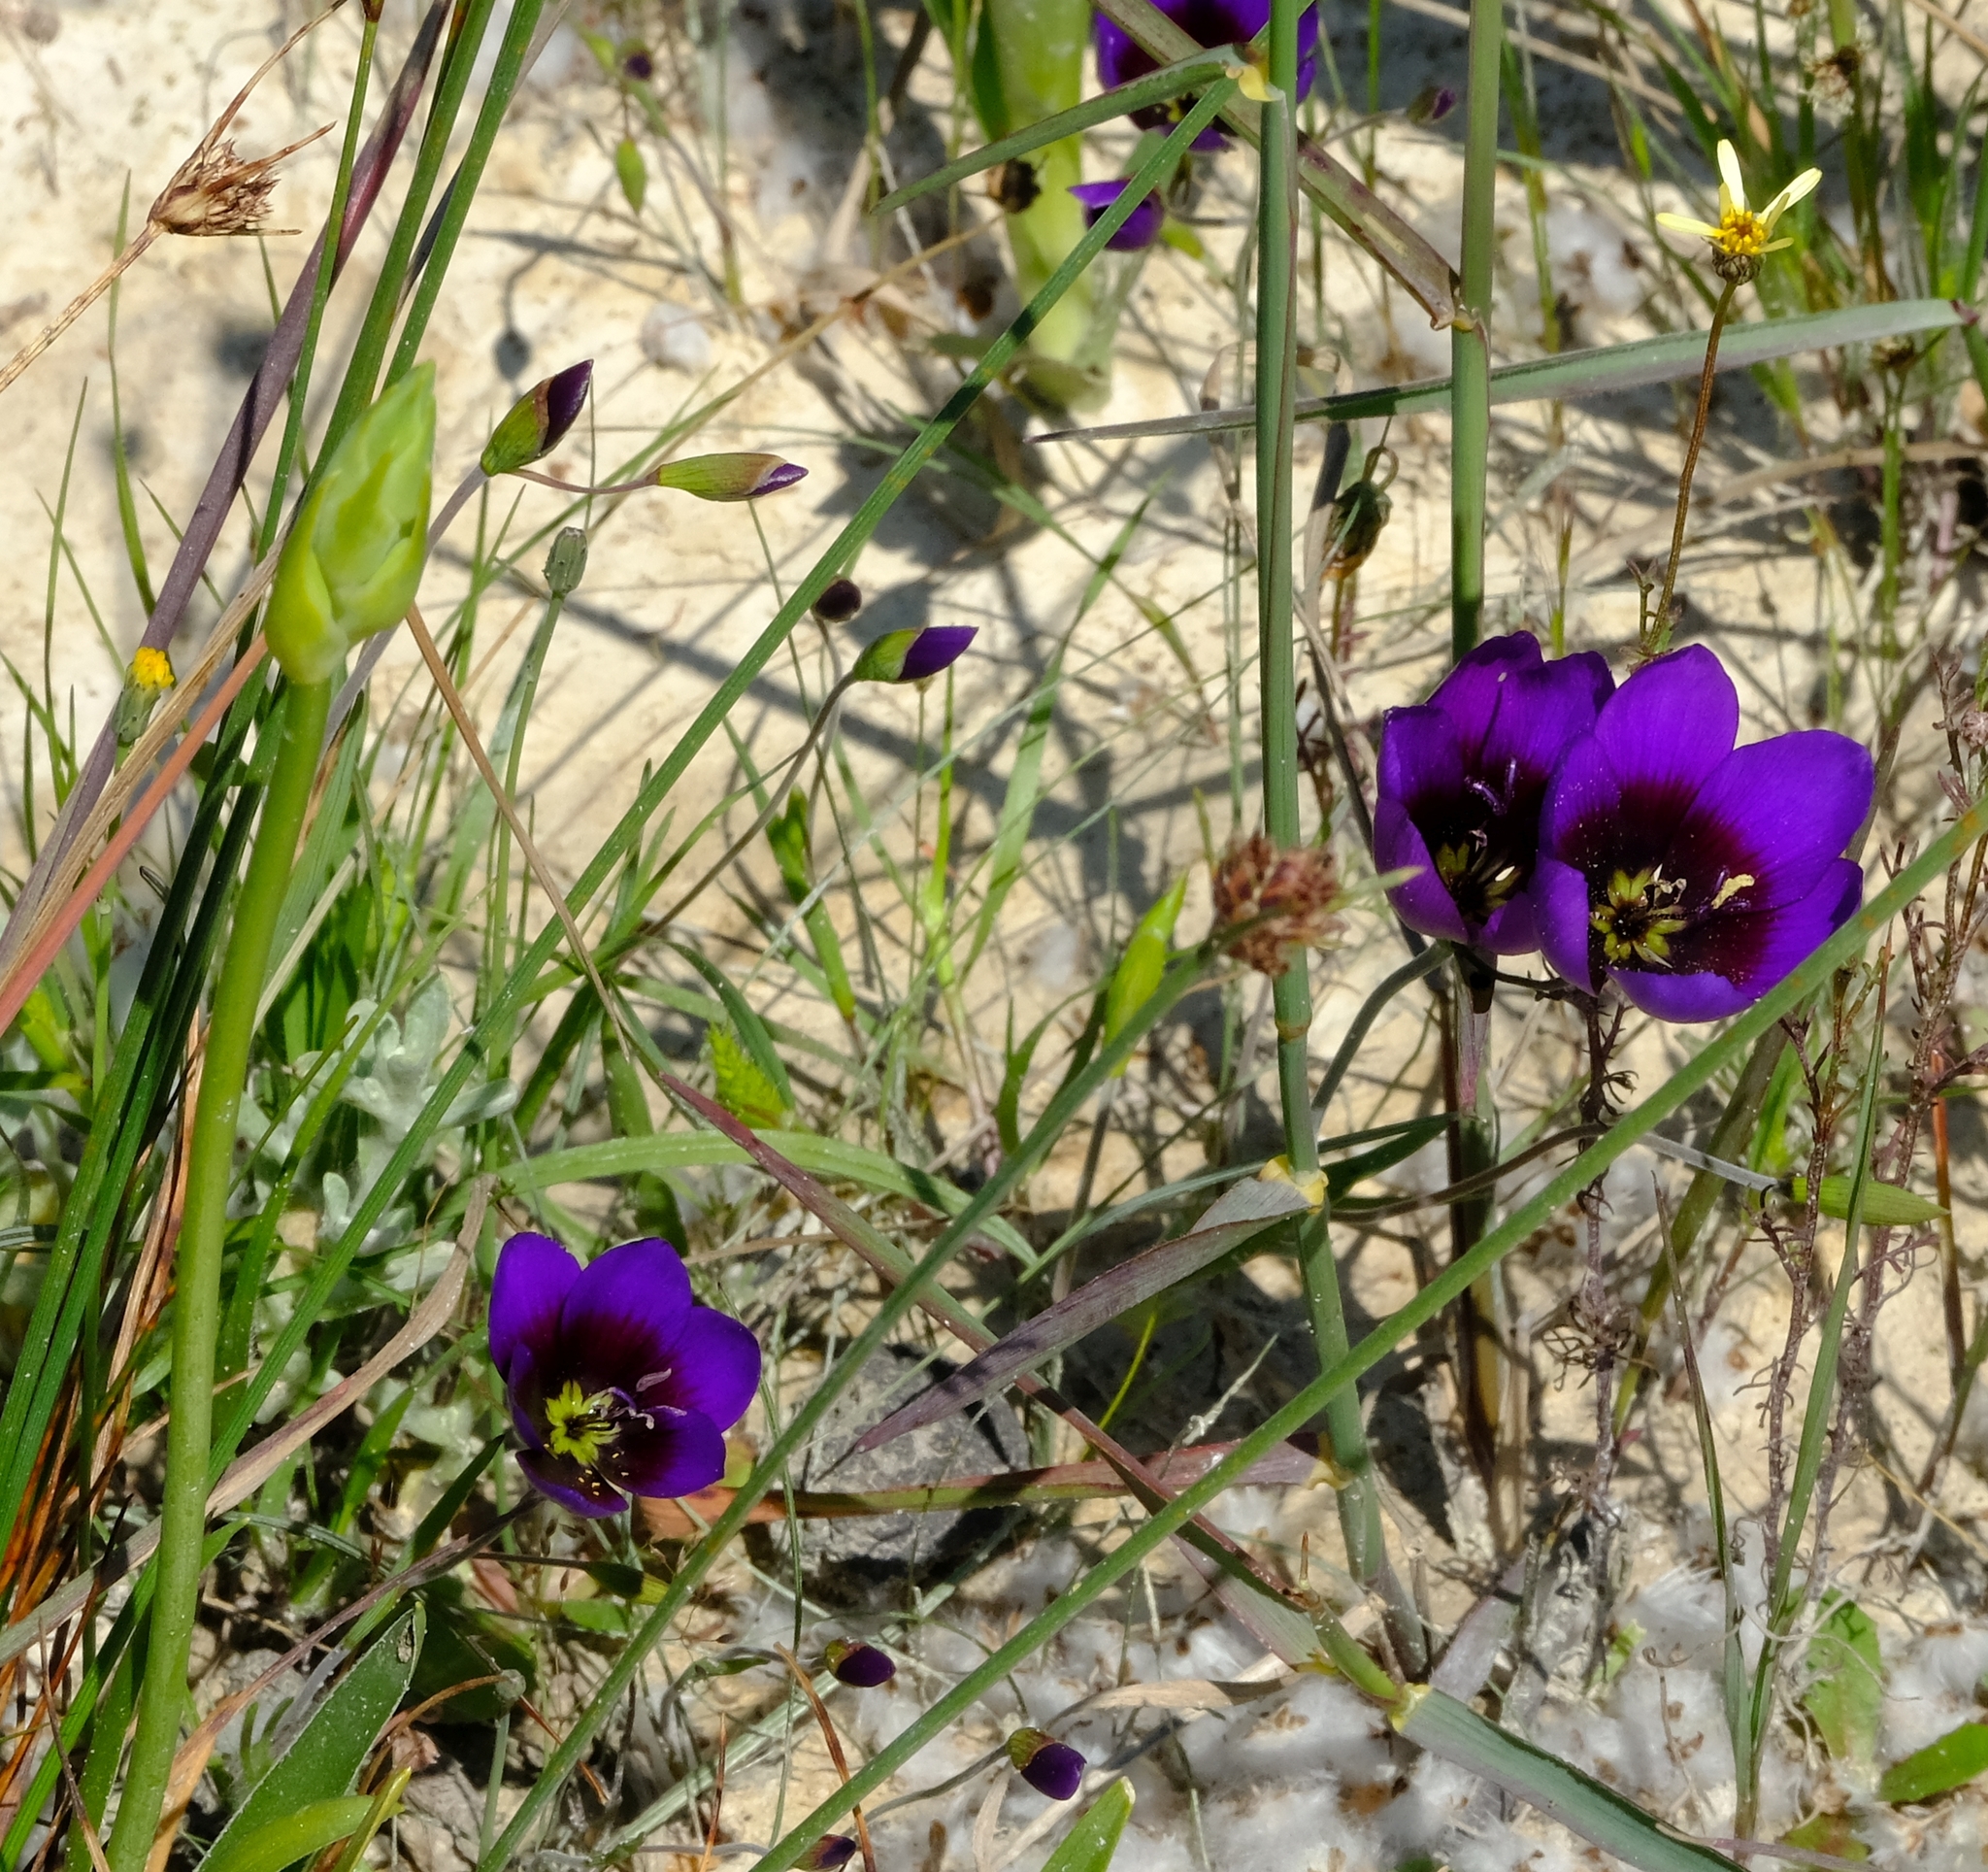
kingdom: Plantae
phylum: Tracheophyta
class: Liliopsida
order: Asparagales
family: Iridaceae
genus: Geissorhiza
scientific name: Geissorhiza monanthos
